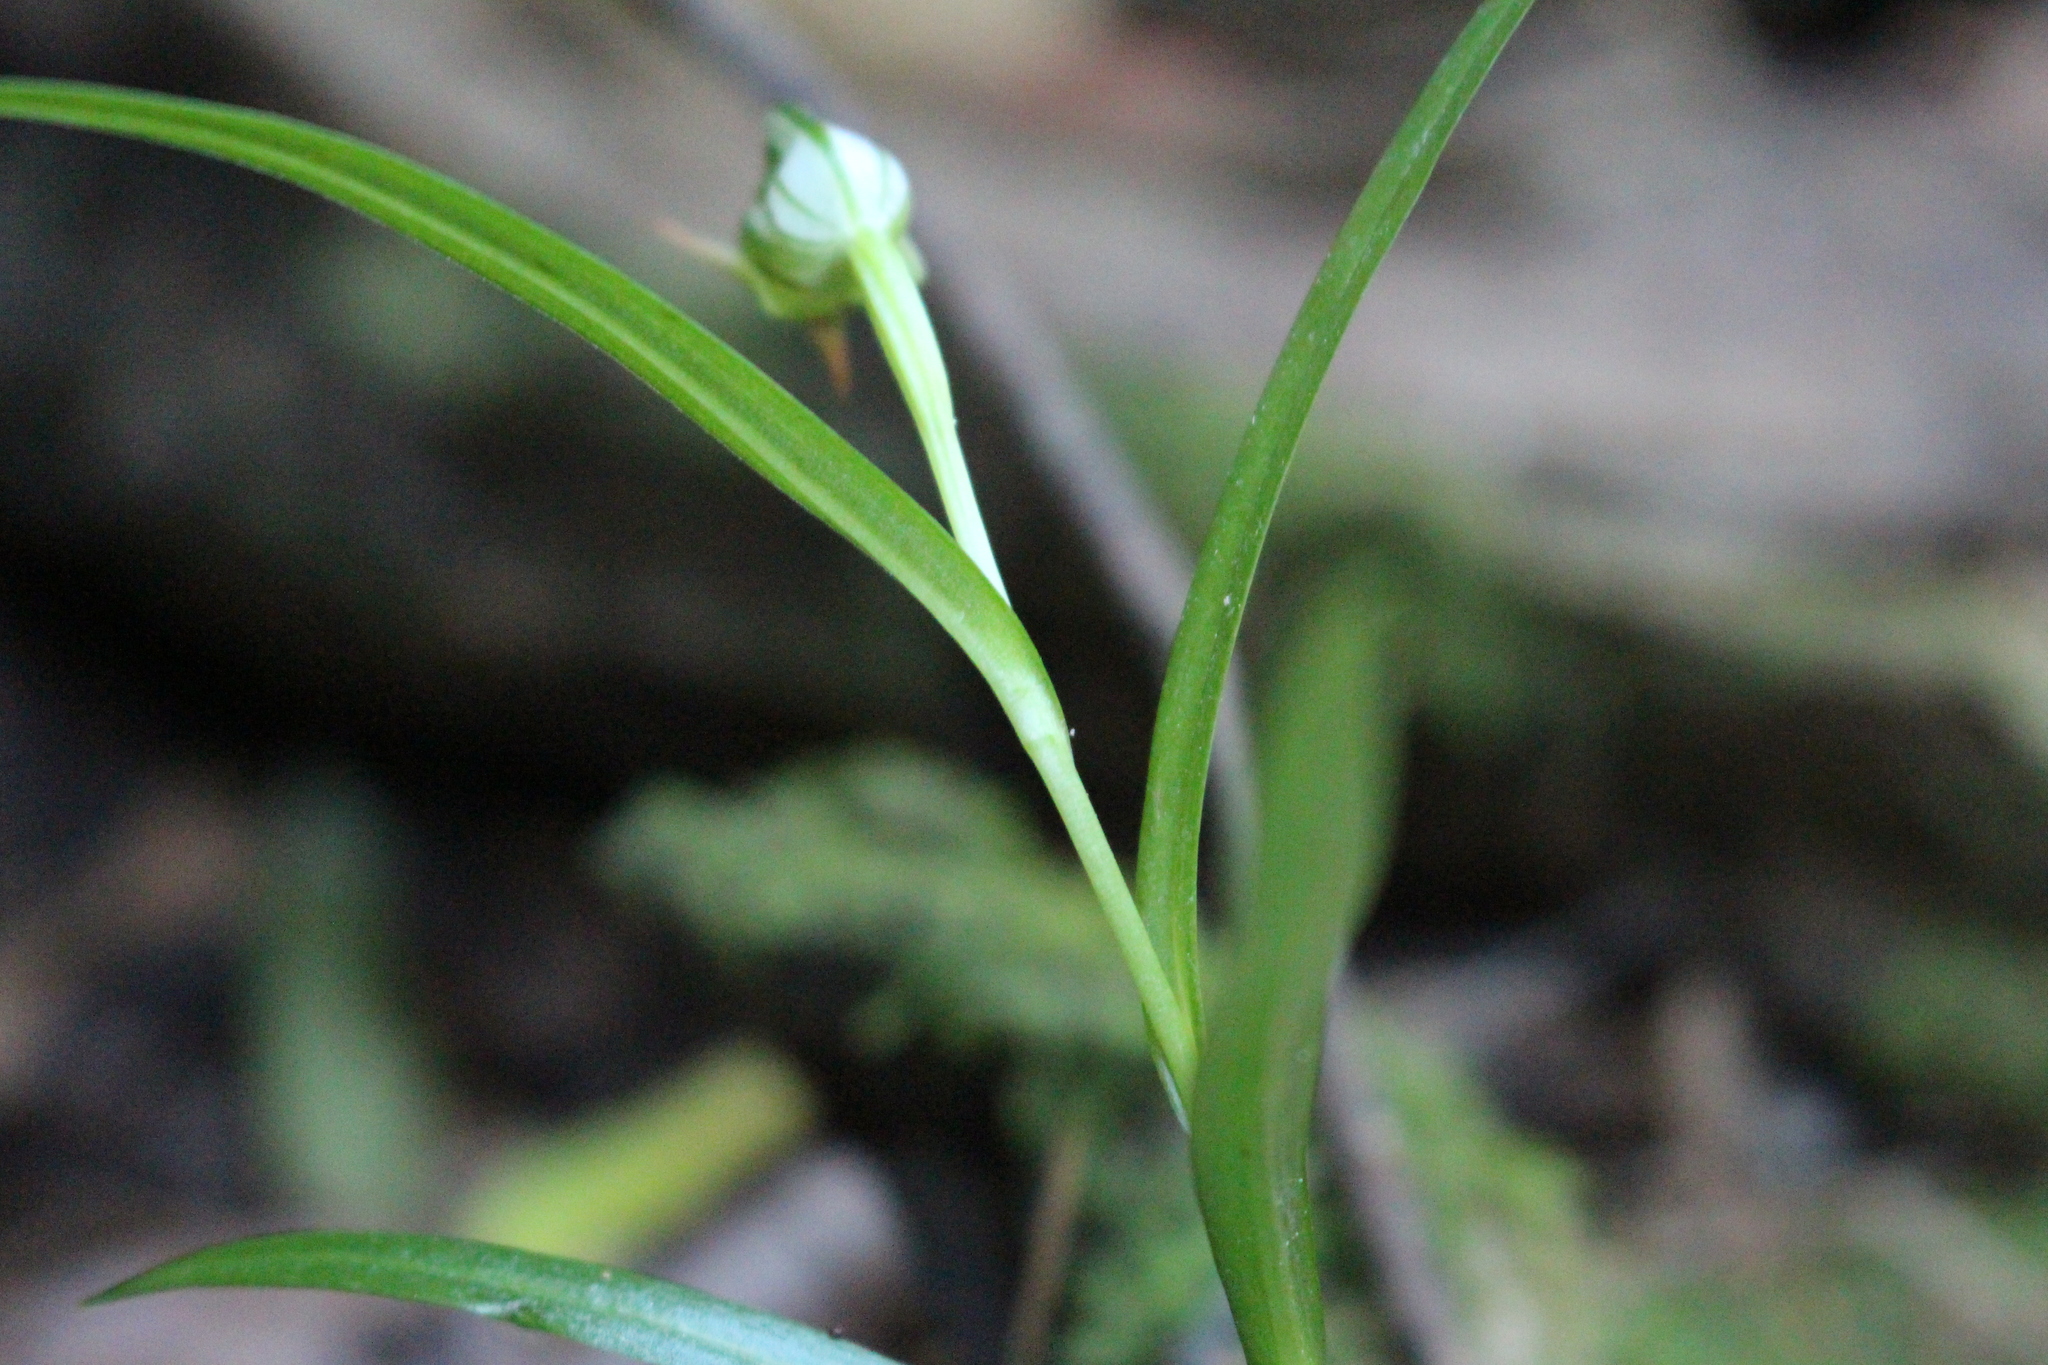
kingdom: Plantae
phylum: Tracheophyta
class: Liliopsida
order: Asparagales
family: Orchidaceae
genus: Pterostylis
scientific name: Pterostylis graminea
